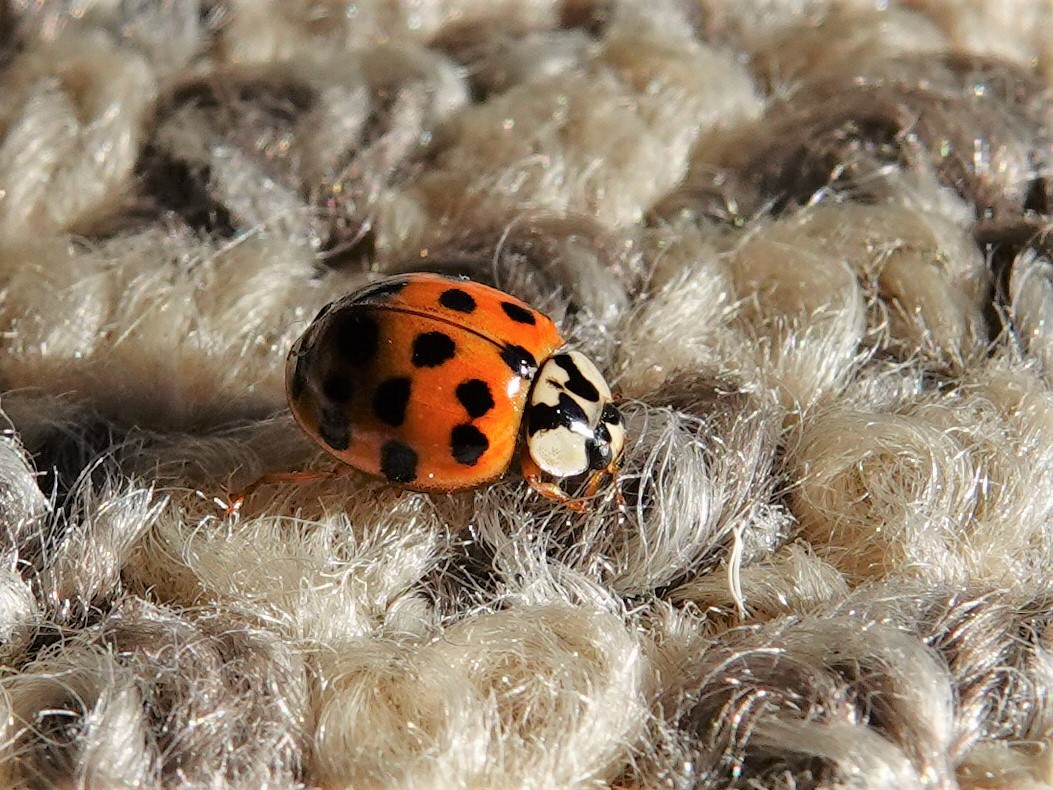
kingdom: Animalia
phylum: Arthropoda
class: Insecta
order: Coleoptera
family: Coccinellidae
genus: Harmonia
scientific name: Harmonia axyridis
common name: Harlequin ladybird
